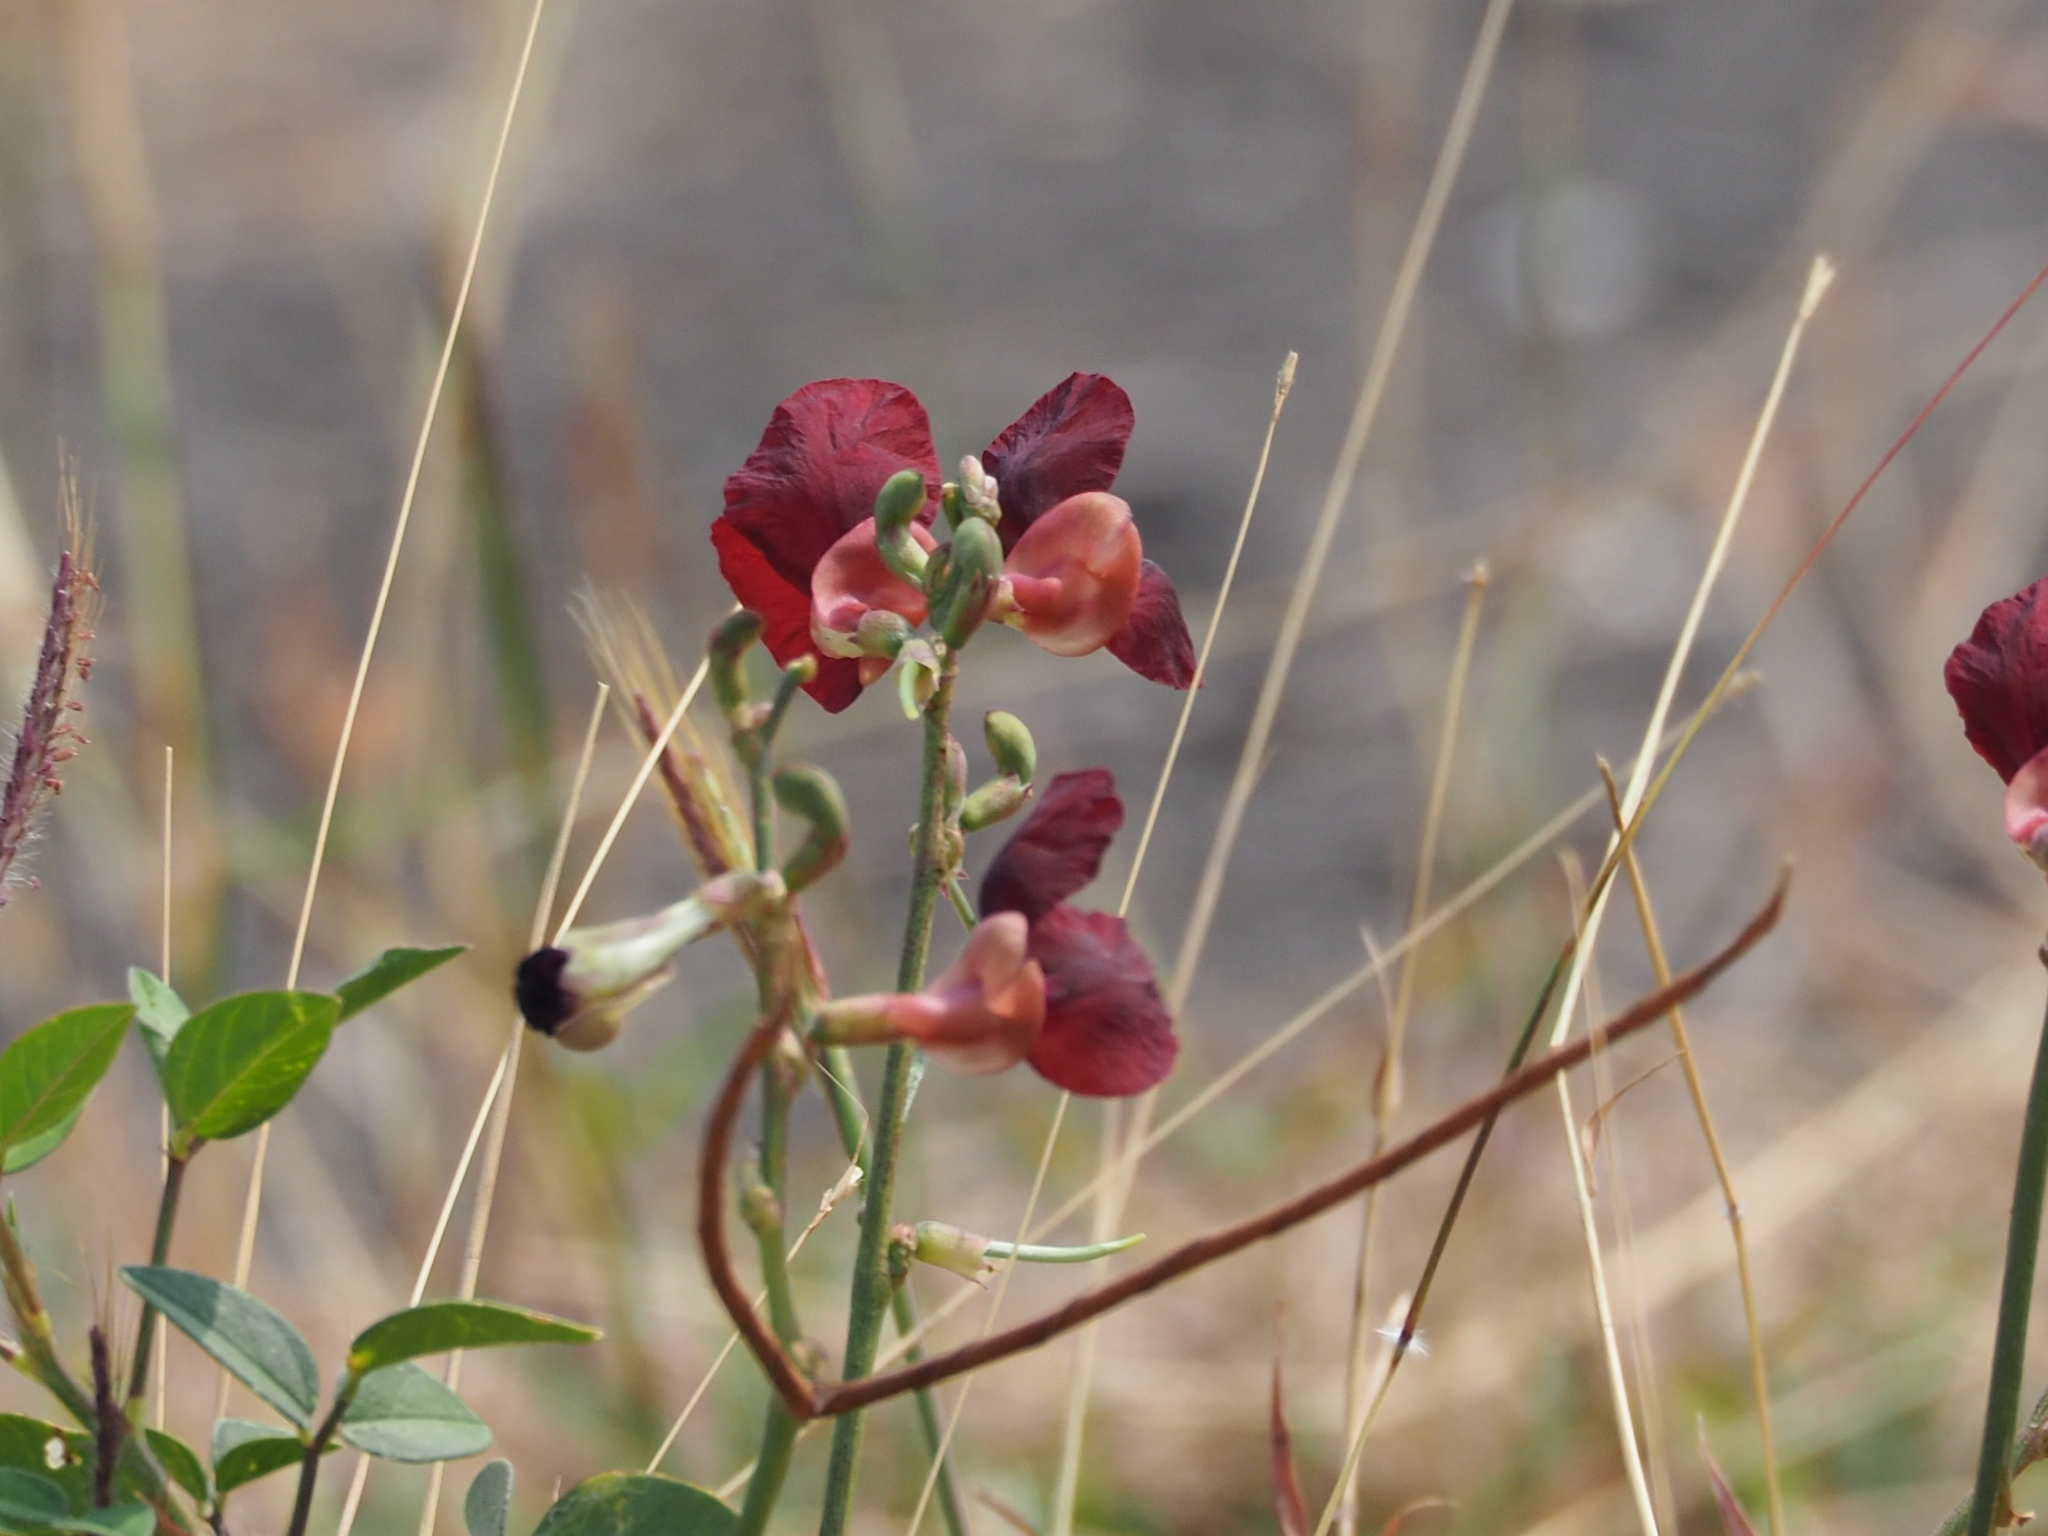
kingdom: Plantae
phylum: Tracheophyta
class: Magnoliopsida
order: Fabales
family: Fabaceae
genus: Macroptilium
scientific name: Macroptilium lathyroides
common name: Wild bushbean
